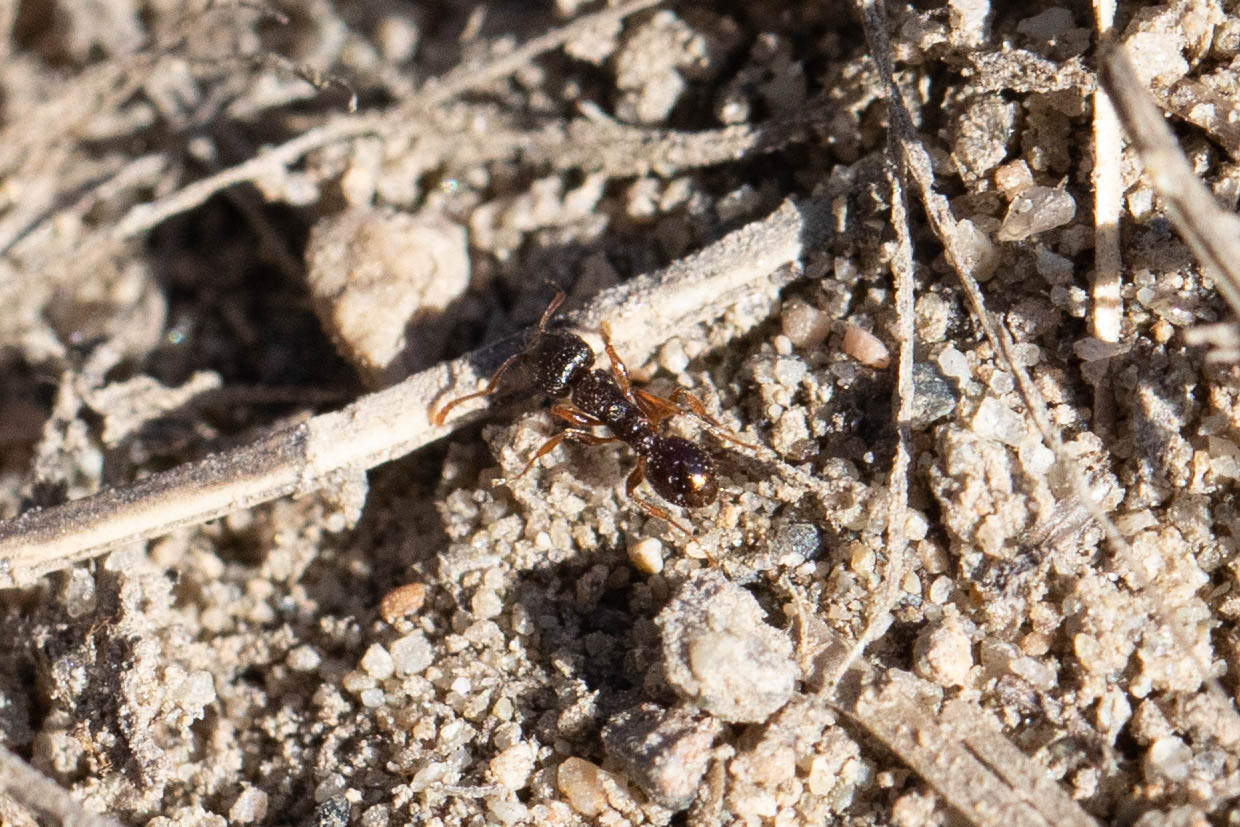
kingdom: Animalia
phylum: Arthropoda
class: Insecta
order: Hymenoptera
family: Formicidae
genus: Tetramorium
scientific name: Tetramorium immigrans
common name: Pavement ant
